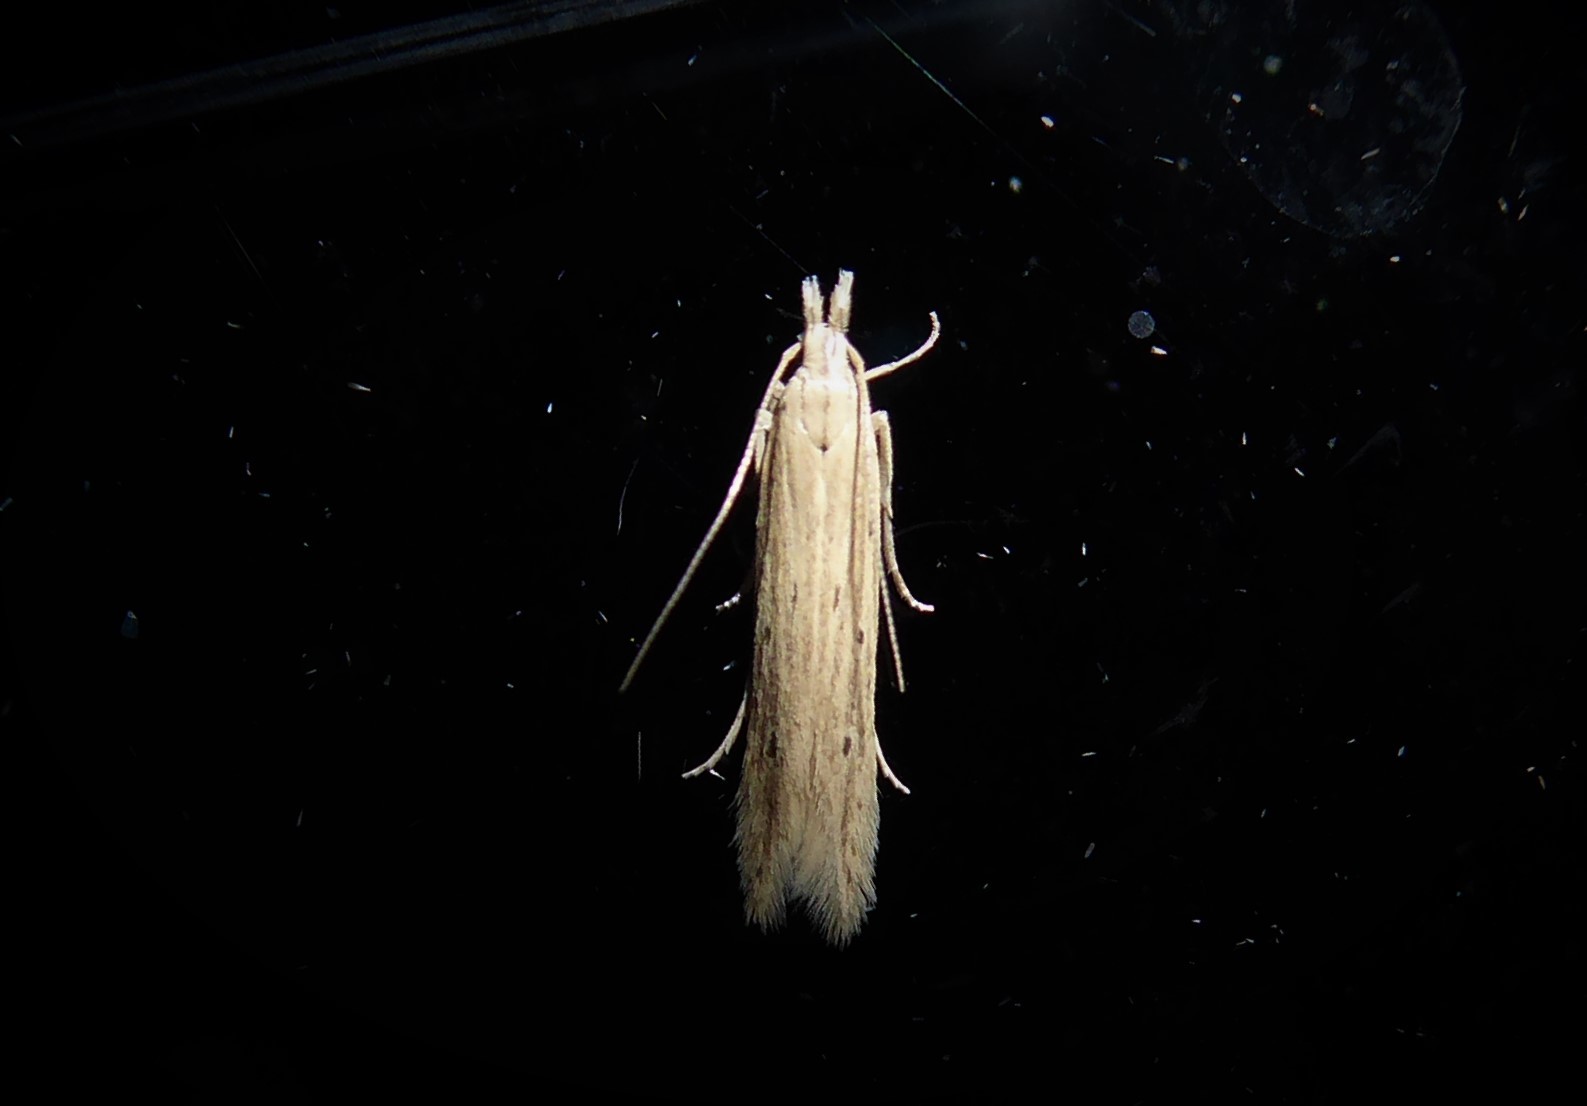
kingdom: Animalia
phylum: Arthropoda
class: Insecta
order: Lepidoptera
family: Gelechiidae
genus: Epiphthora
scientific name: Epiphthora calamogonus
